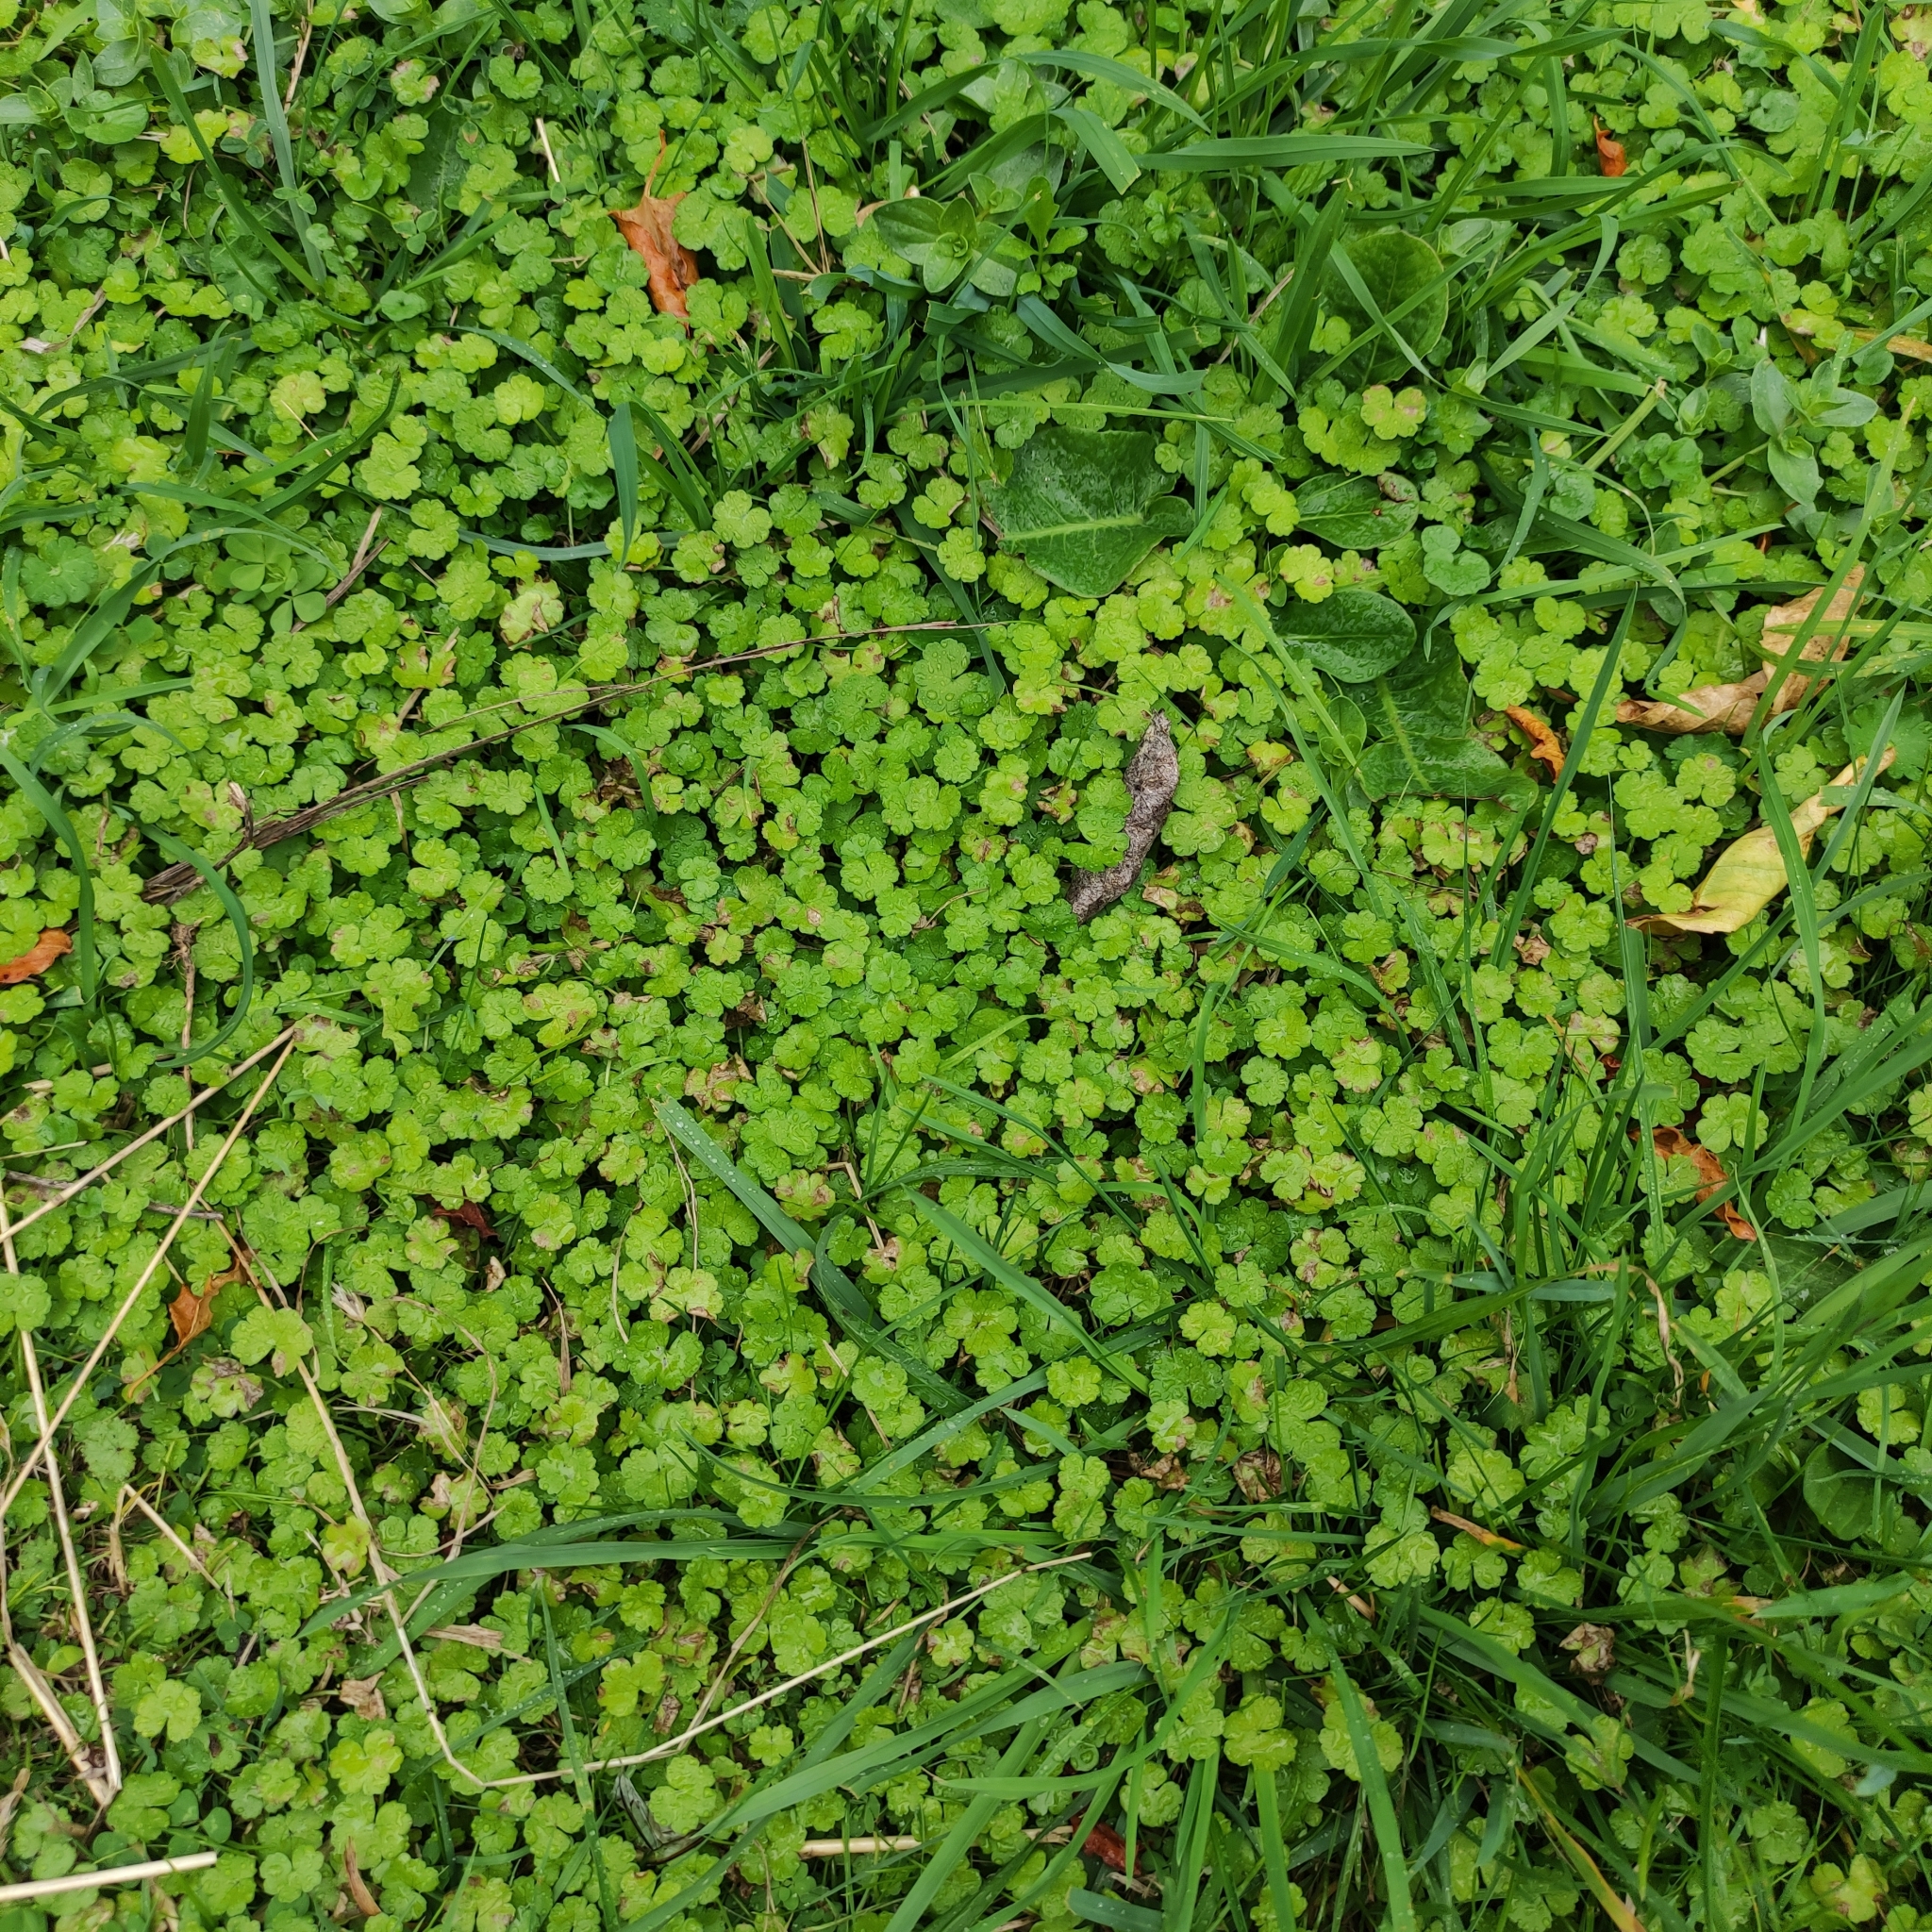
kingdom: Plantae
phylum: Tracheophyta
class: Magnoliopsida
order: Apiales
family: Araliaceae
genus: Hydrocotyle
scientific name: Hydrocotyle heteromeria
